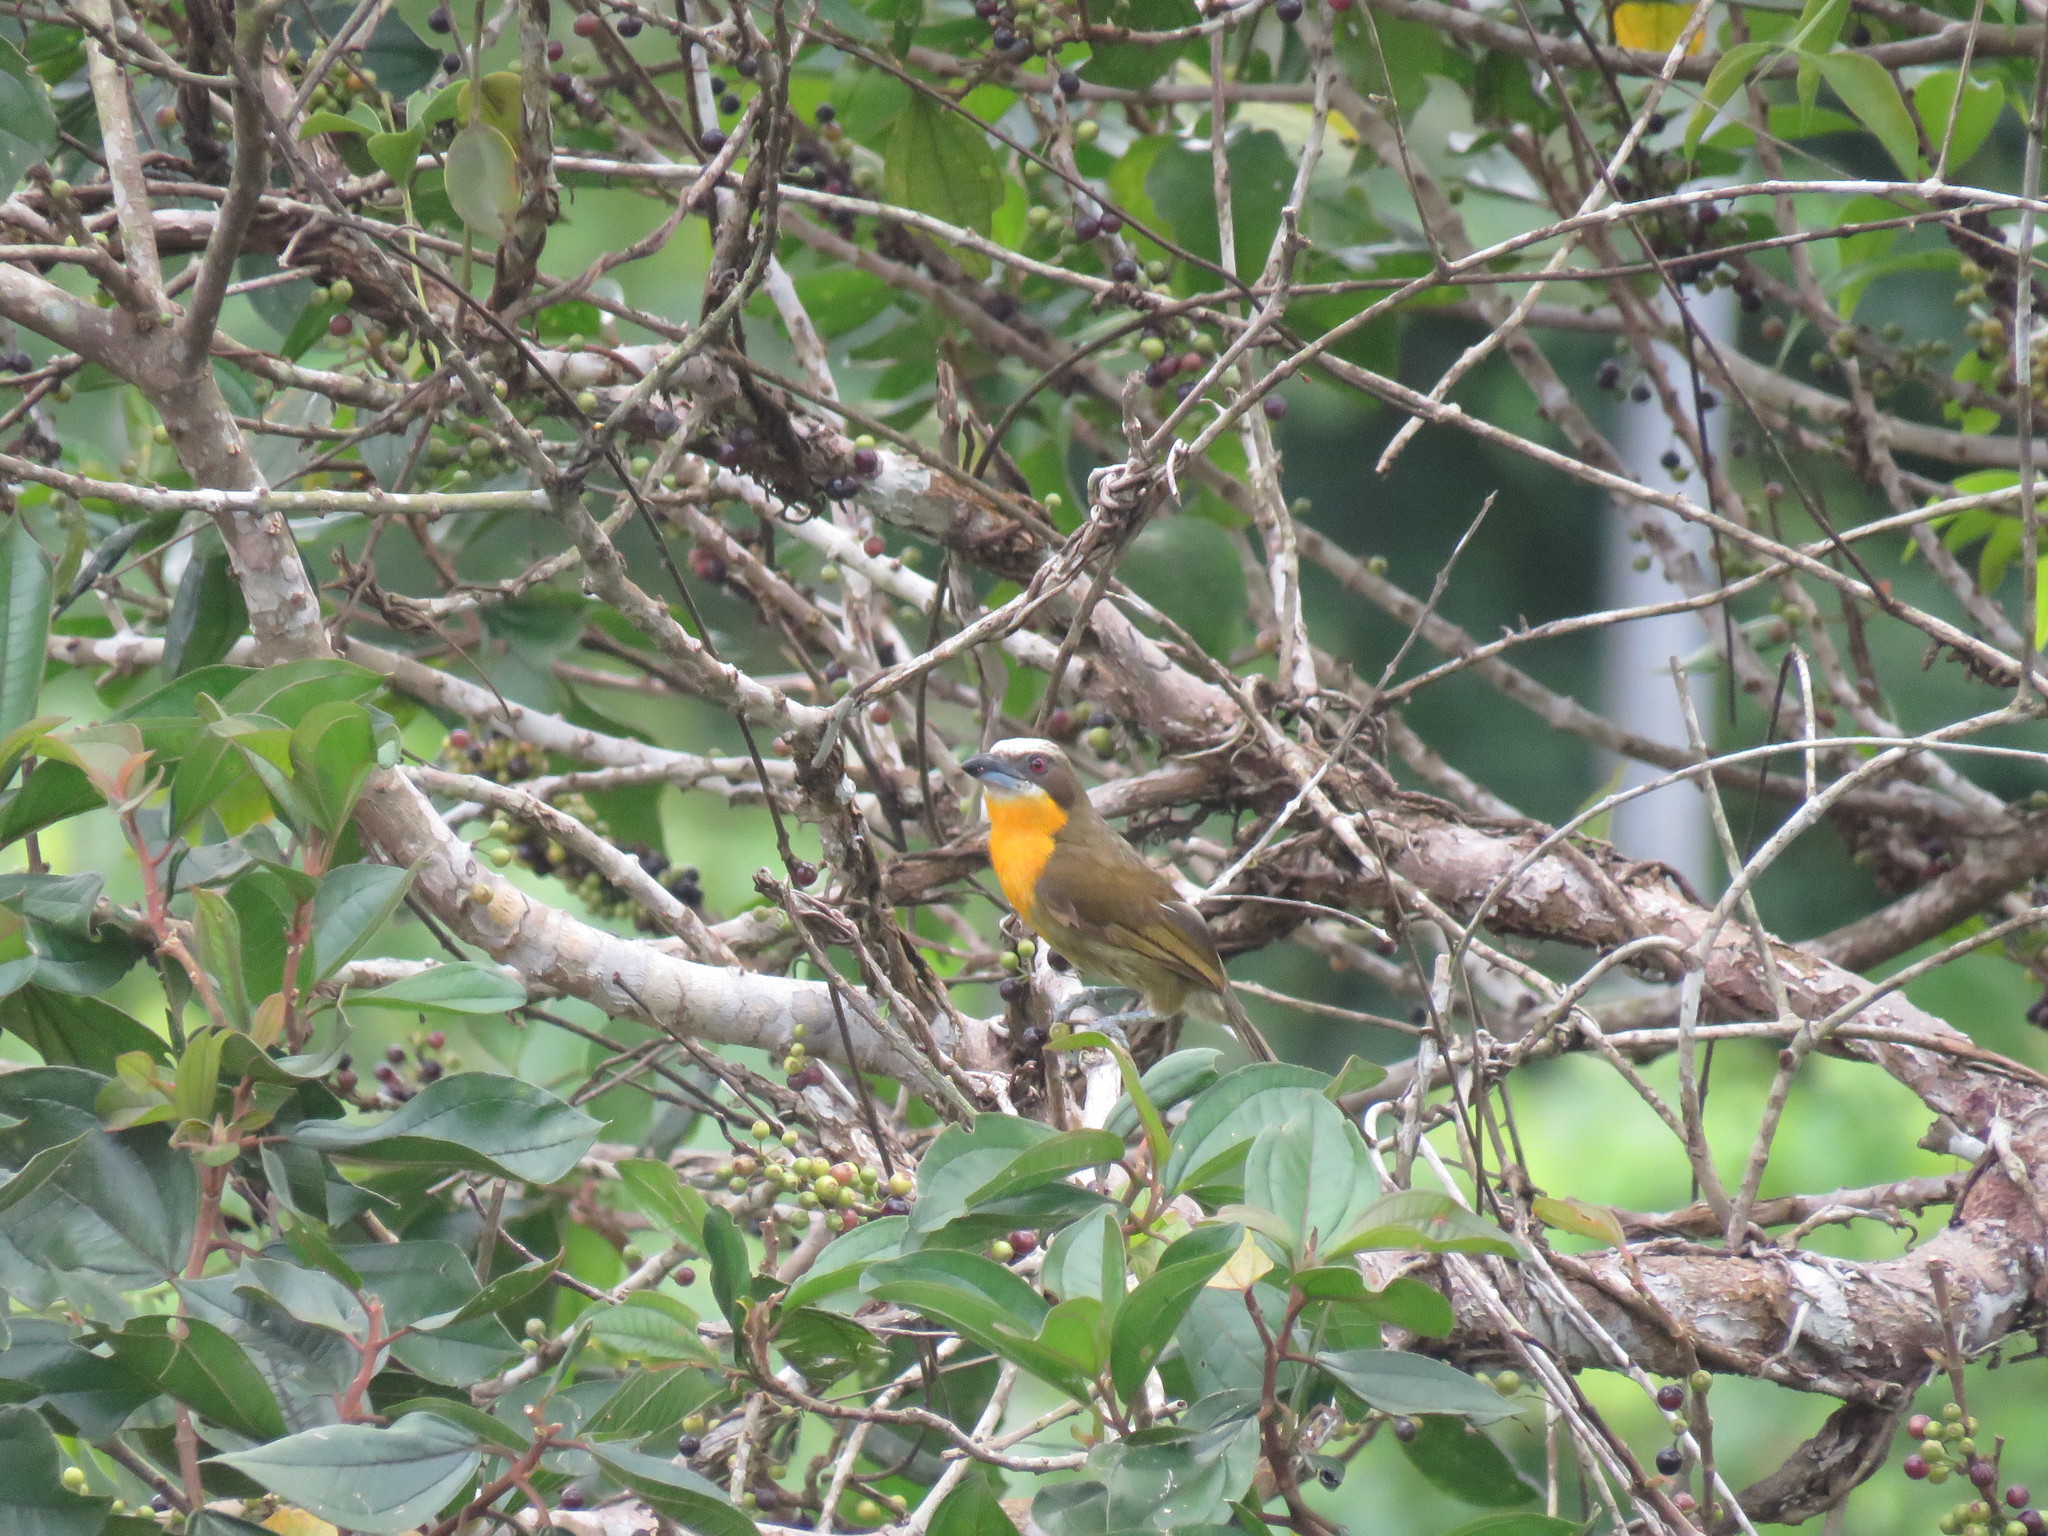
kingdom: Animalia
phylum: Chordata
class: Aves
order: Piciformes
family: Capitonidae
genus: Capito
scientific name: Capito aurovirens
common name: Scarlet-crowned barbet
